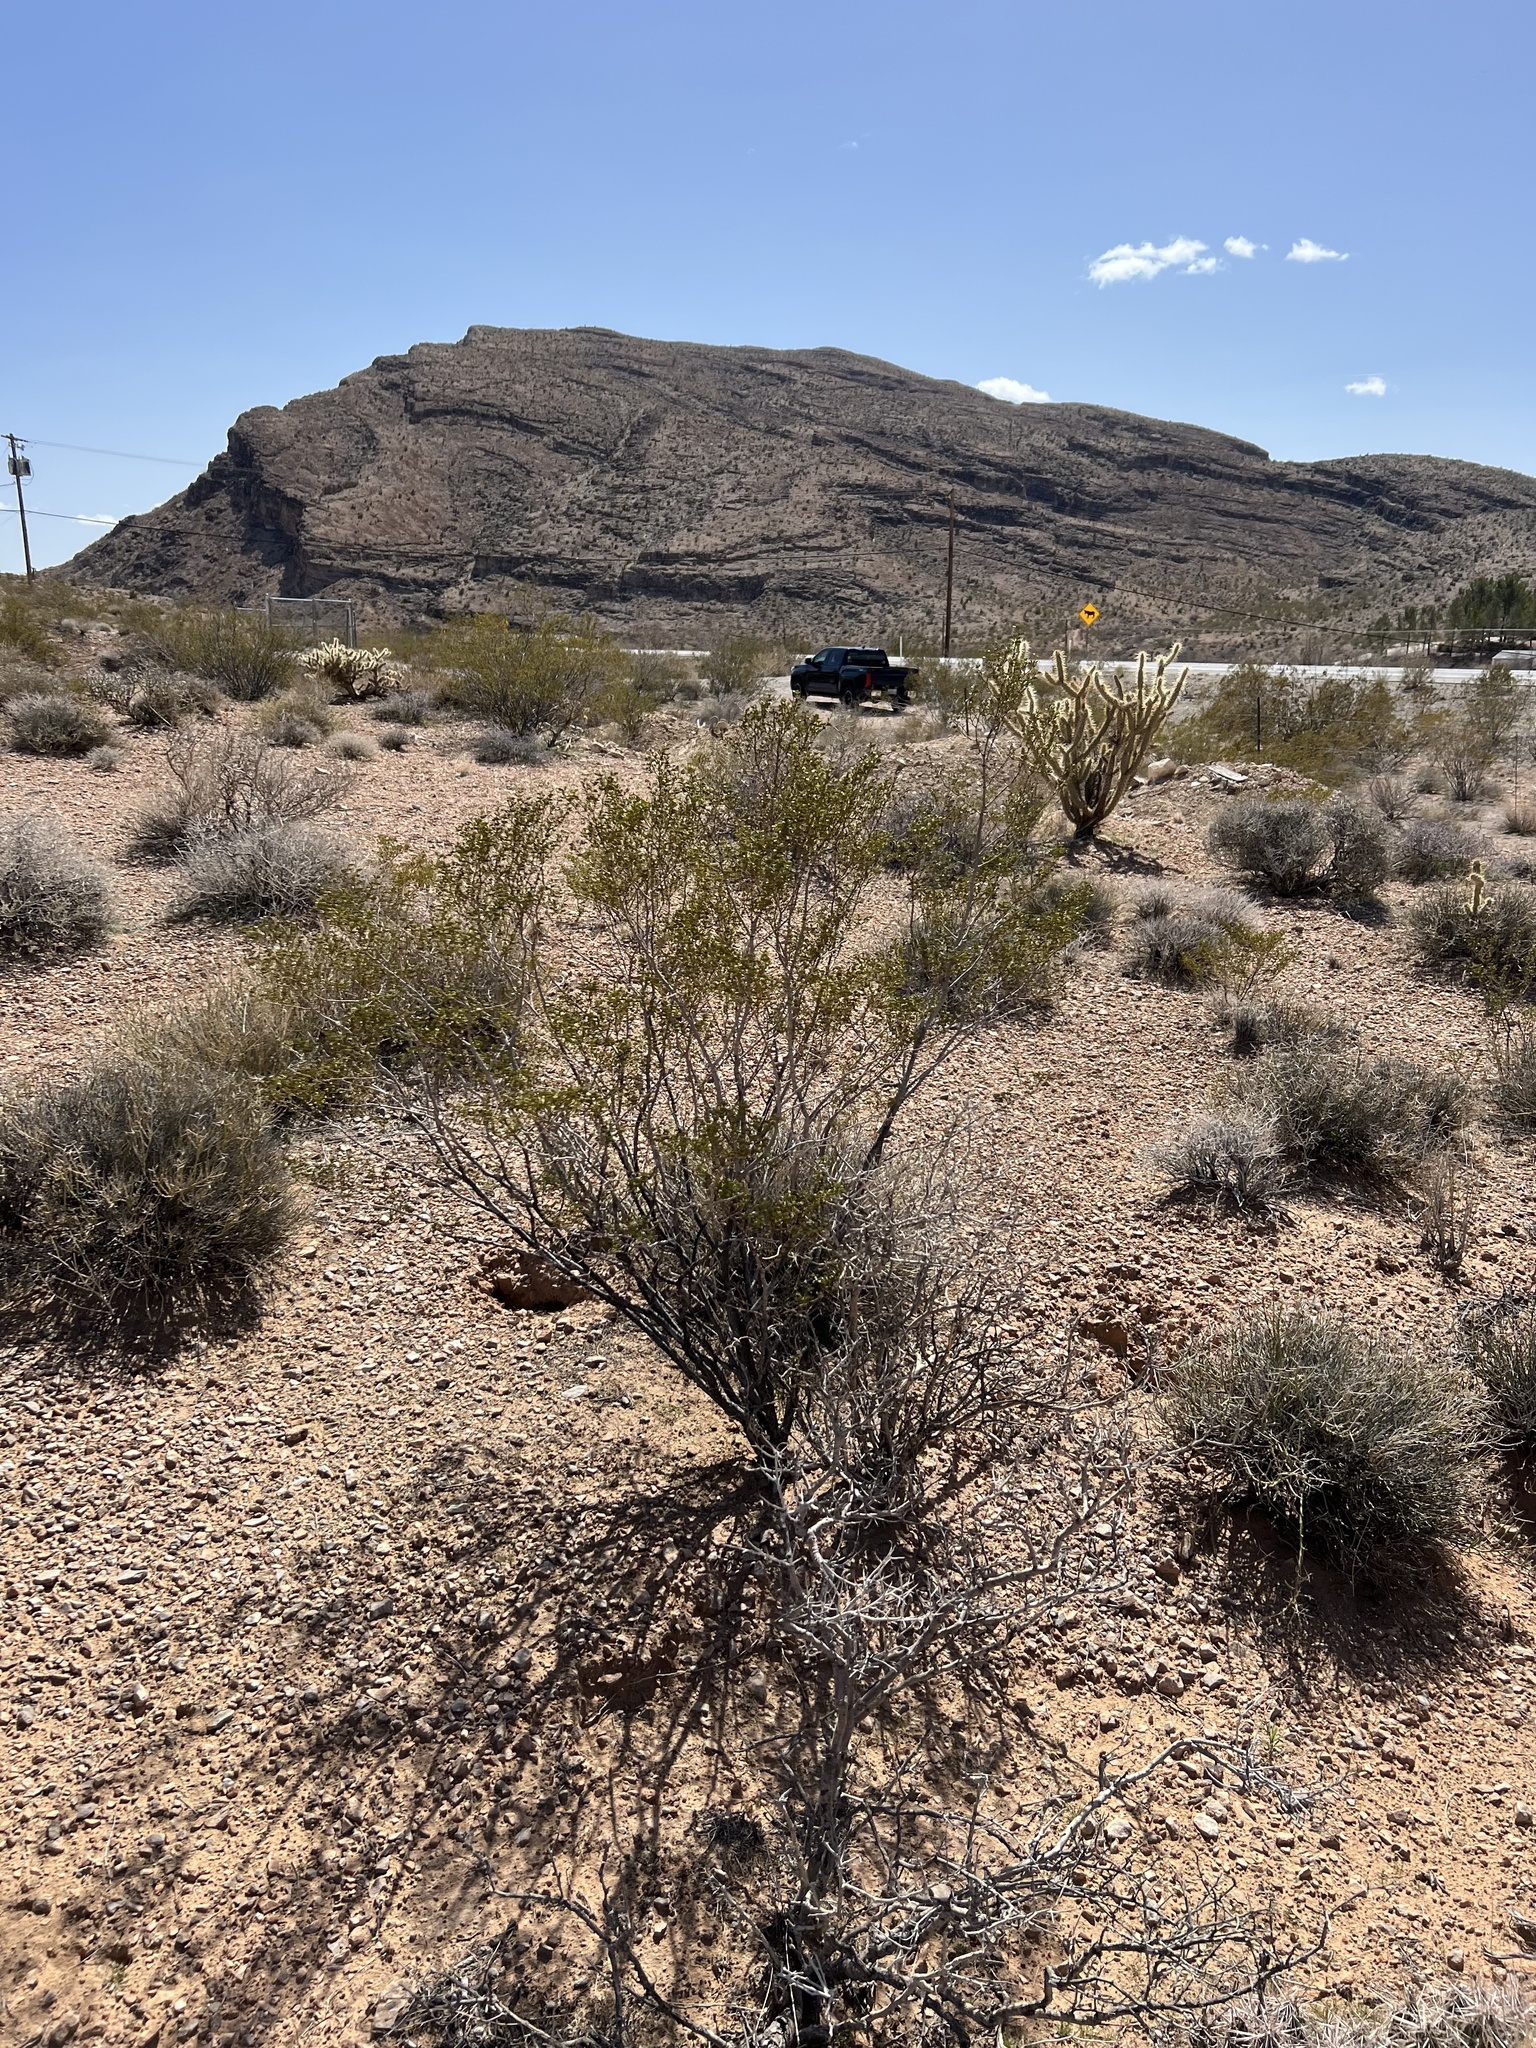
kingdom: Plantae
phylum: Tracheophyta
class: Magnoliopsida
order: Zygophyllales
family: Zygophyllaceae
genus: Larrea
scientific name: Larrea tridentata
